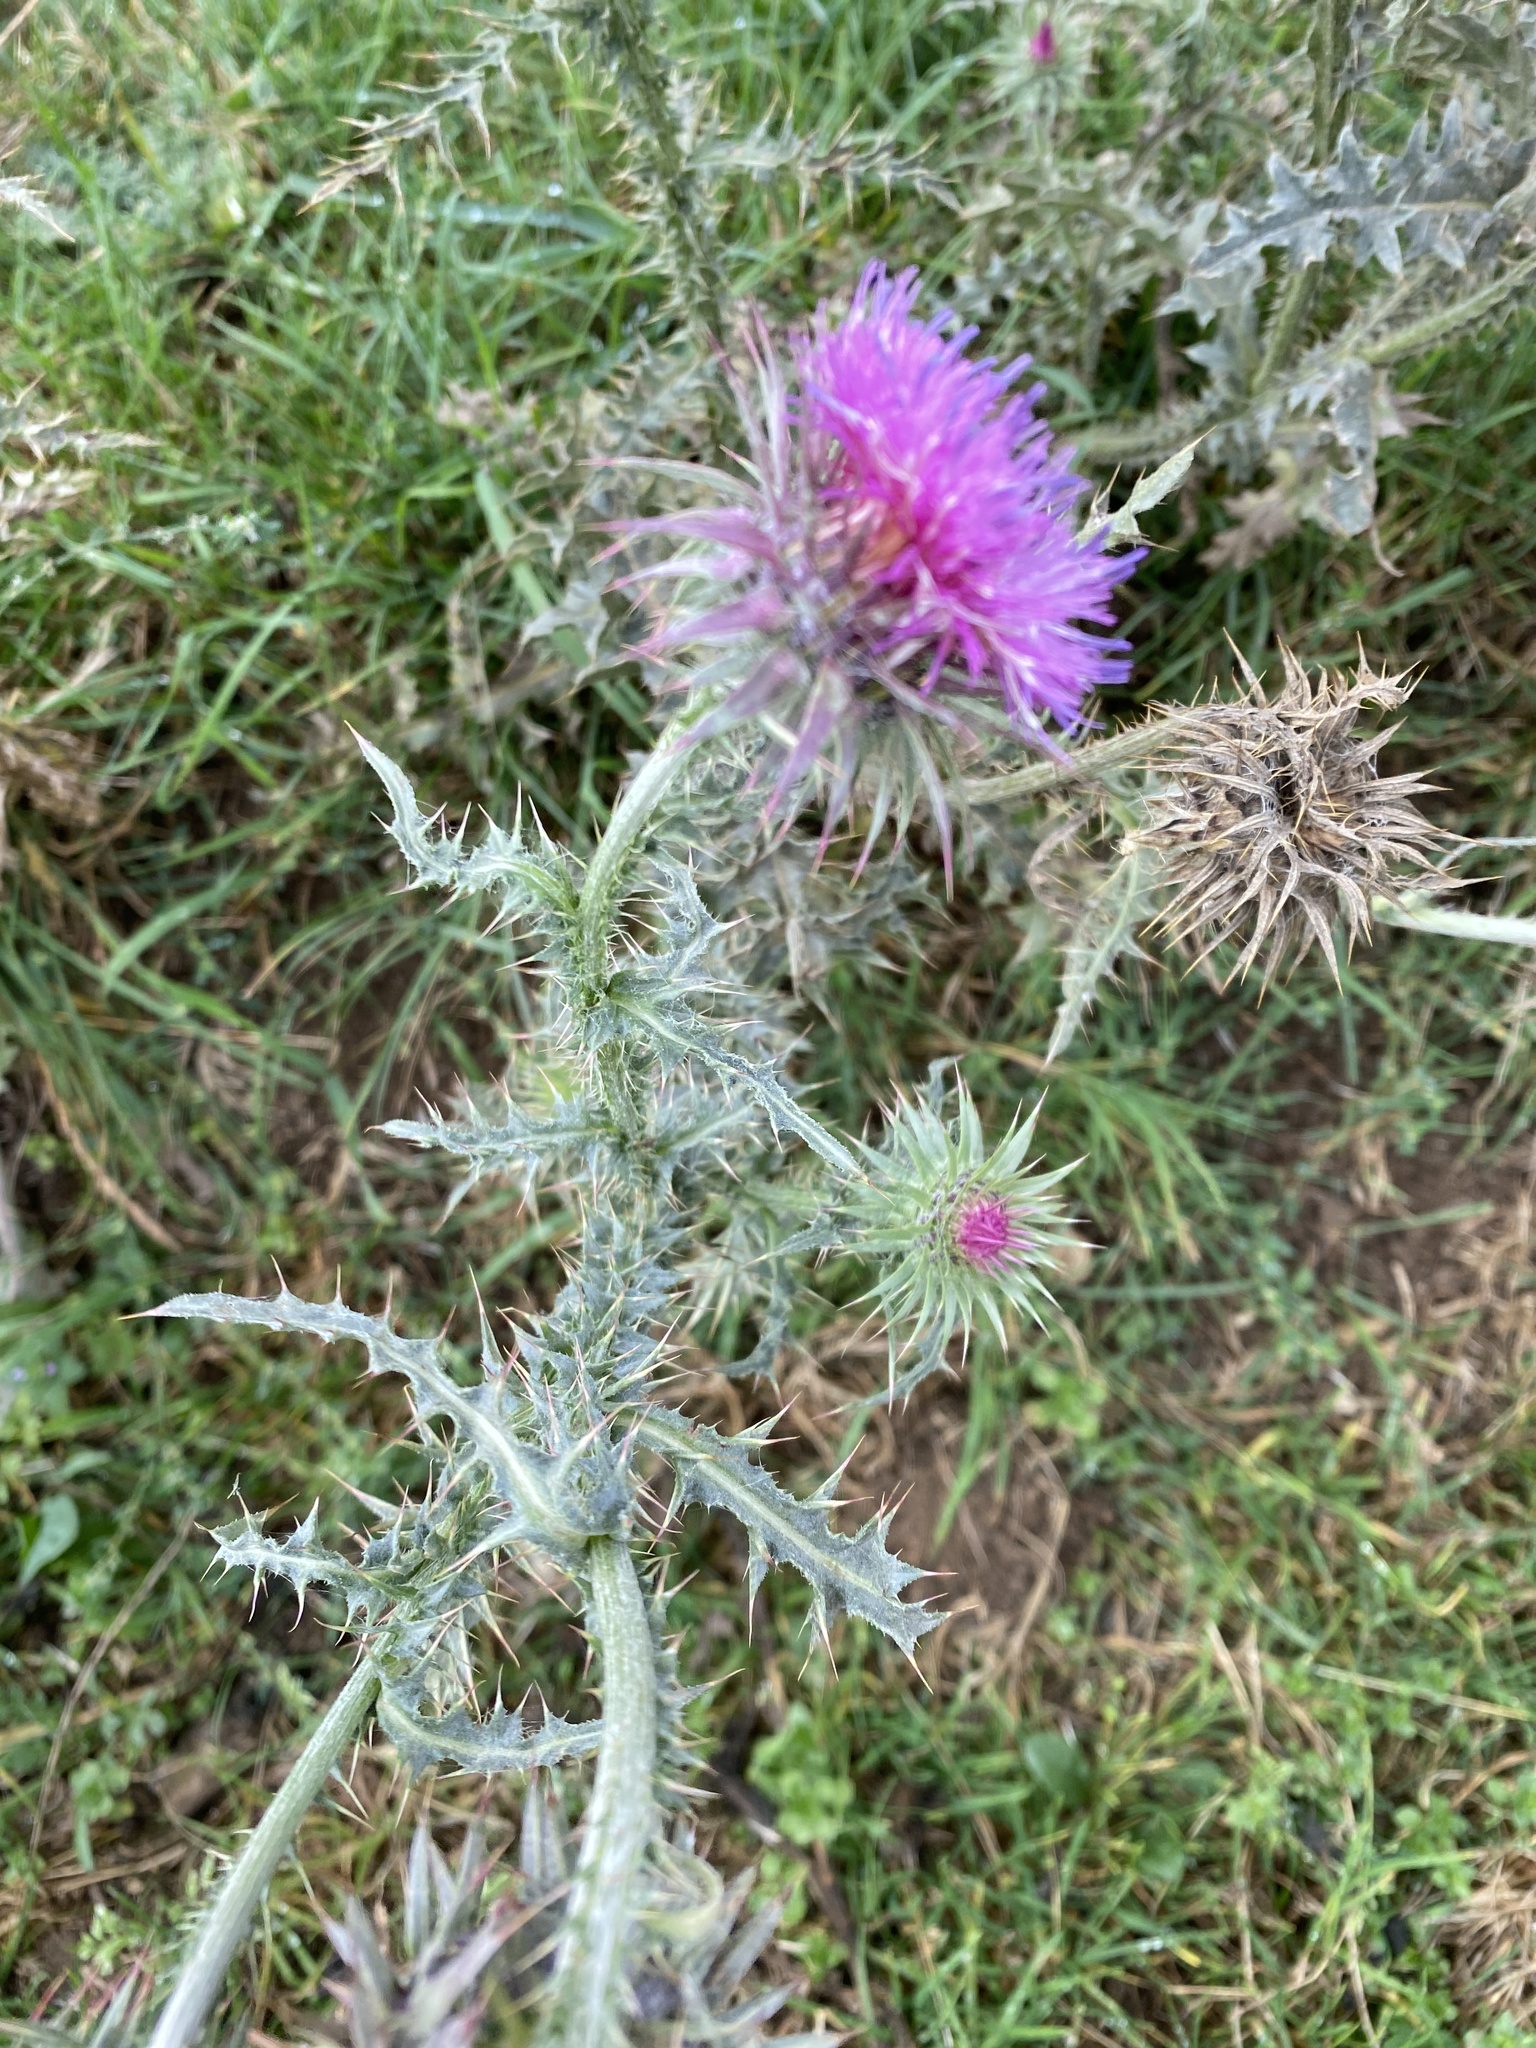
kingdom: Plantae
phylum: Tracheophyta
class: Magnoliopsida
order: Asterales
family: Asteraceae
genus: Carduus
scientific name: Carduus nutans
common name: Musk thistle
